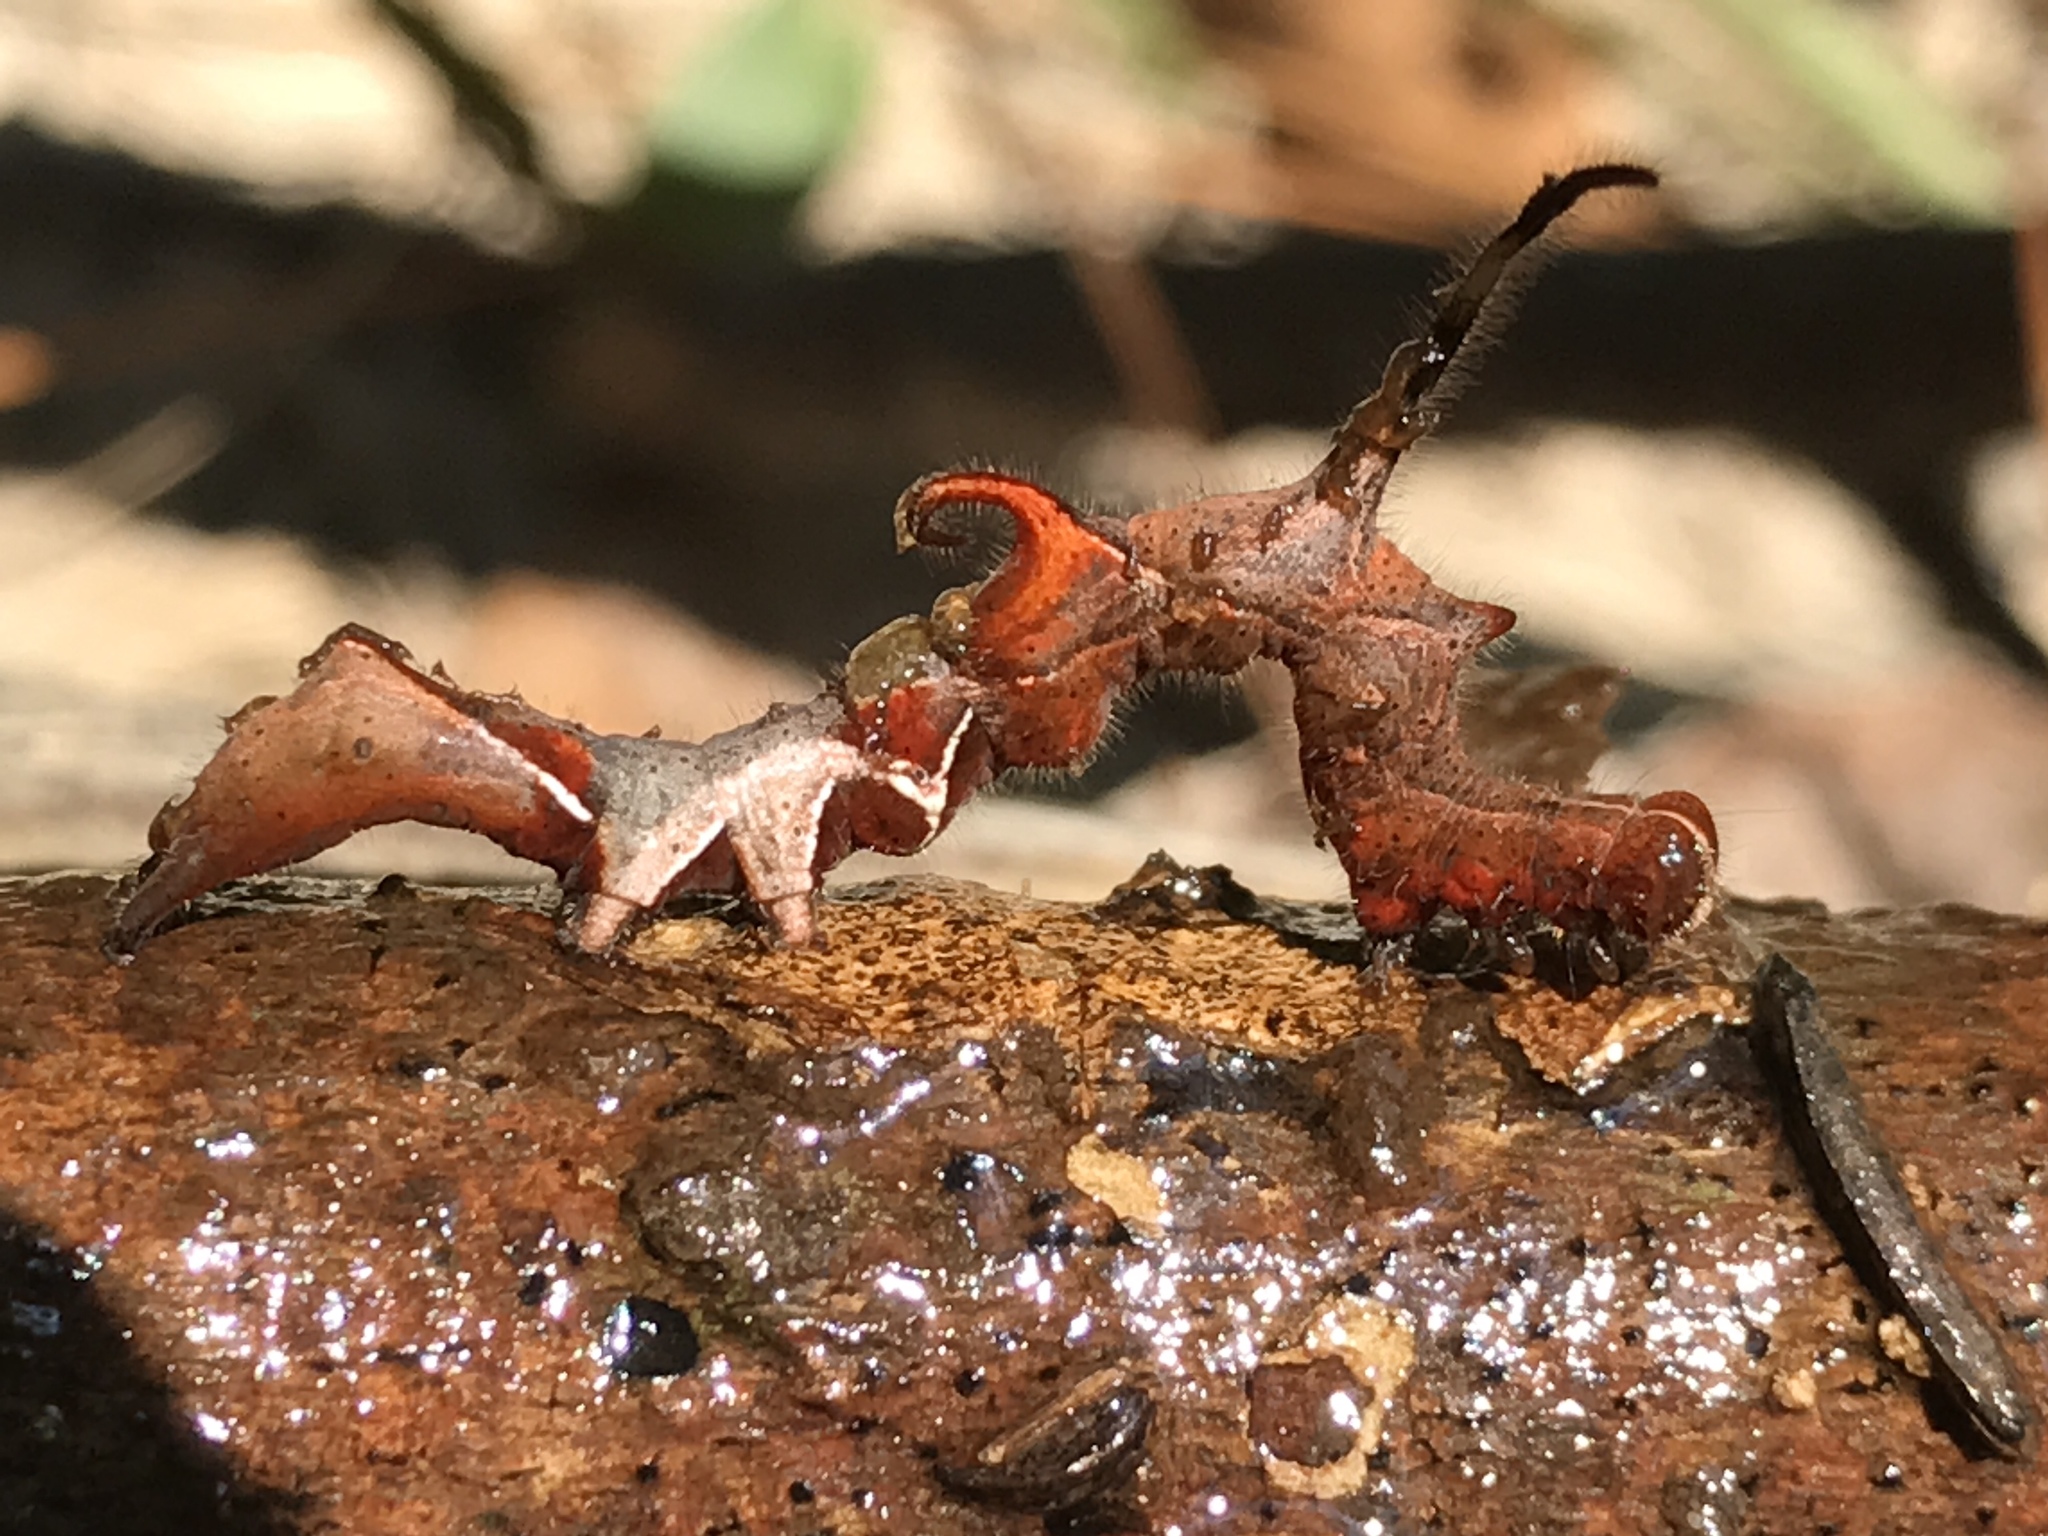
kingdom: Animalia
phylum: Arthropoda
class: Insecta
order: Lepidoptera
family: Erebidae
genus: Phyprosopus
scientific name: Phyprosopus callitrichoides
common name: Curved-lined owlet
